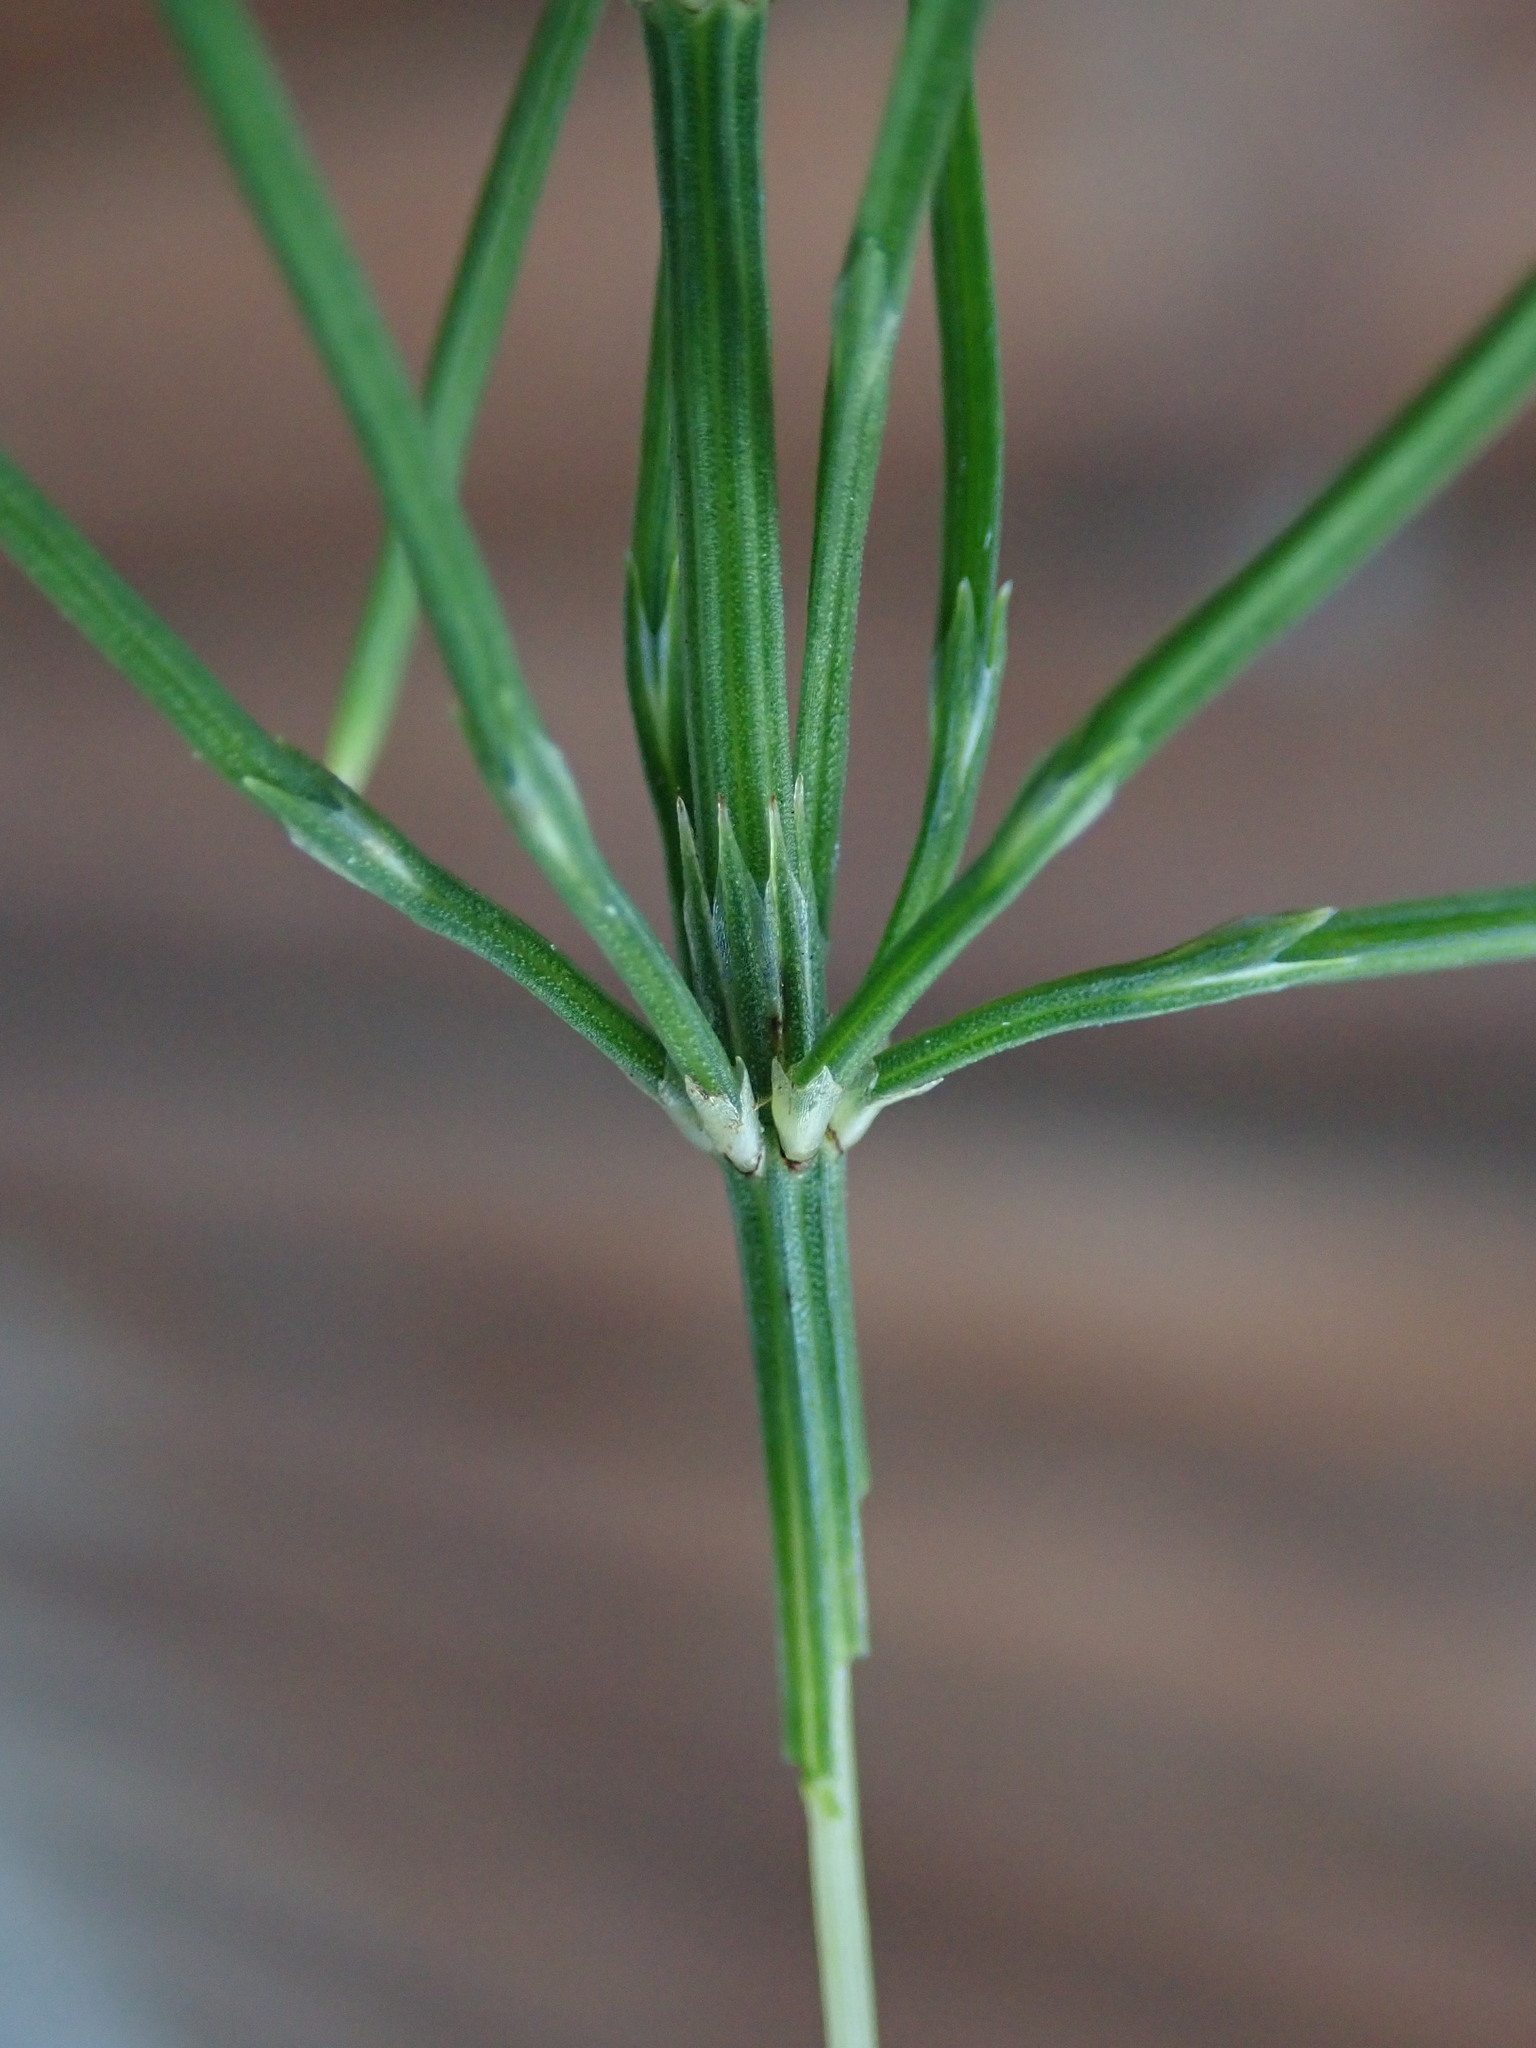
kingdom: Plantae
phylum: Tracheophyta
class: Polypodiopsida
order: Equisetales
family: Equisetaceae
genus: Equisetum
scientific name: Equisetum arvense
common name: Field horsetail
